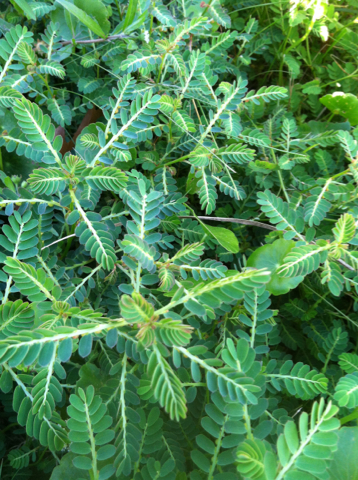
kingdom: Plantae
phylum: Tracheophyta
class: Magnoliopsida
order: Malpighiales
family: Phyllanthaceae
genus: Phyllanthus
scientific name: Phyllanthus urinaria
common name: Chamber bitter
